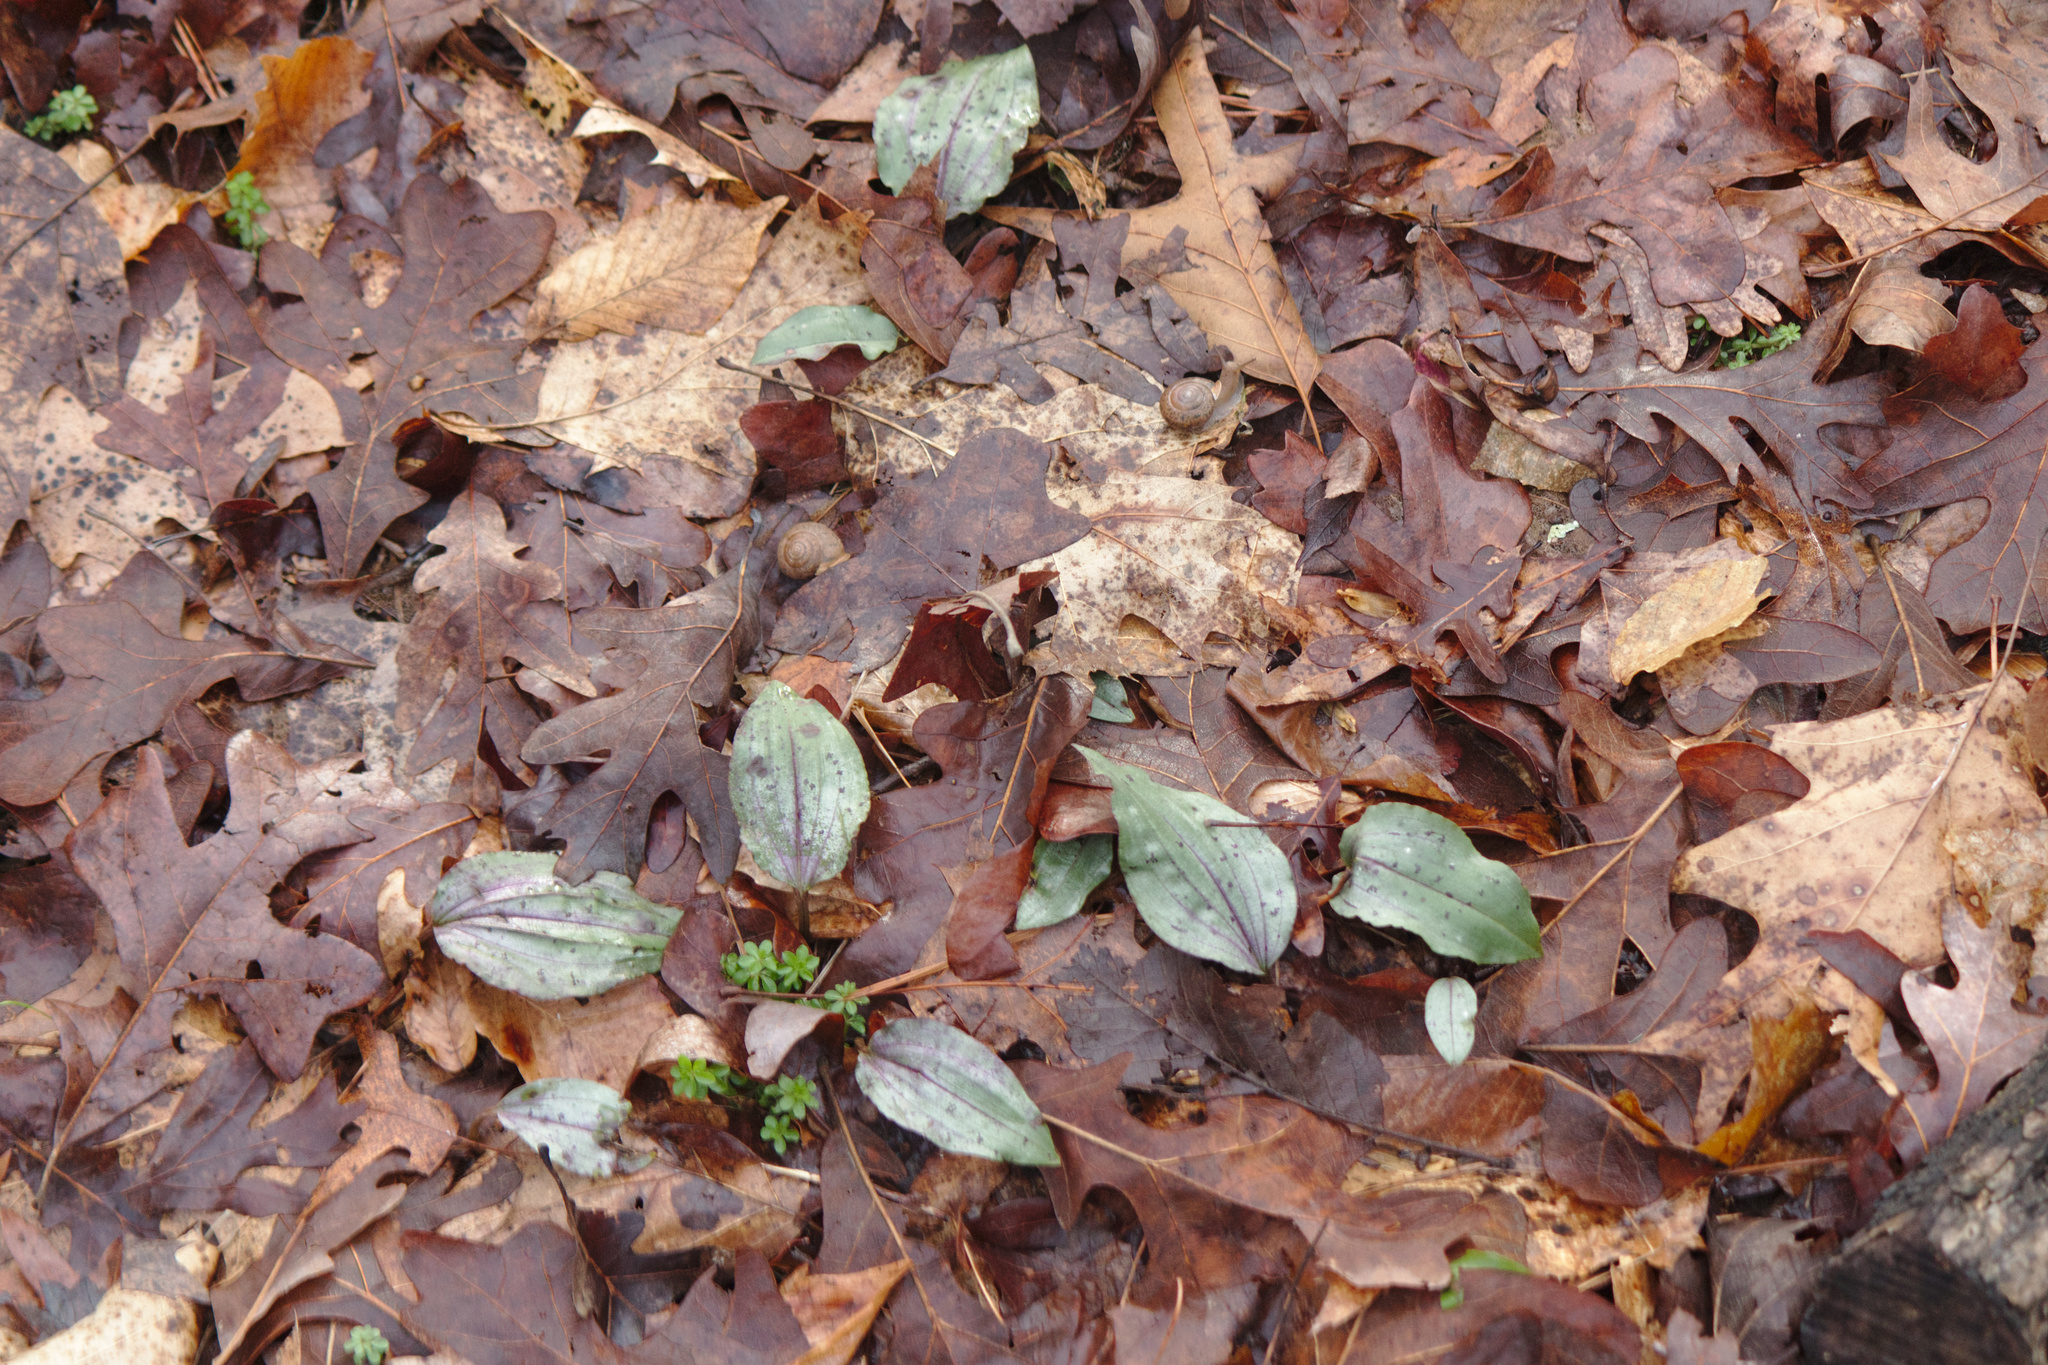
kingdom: Plantae
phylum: Tracheophyta
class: Liliopsida
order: Asparagales
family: Orchidaceae
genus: Tipularia
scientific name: Tipularia discolor
